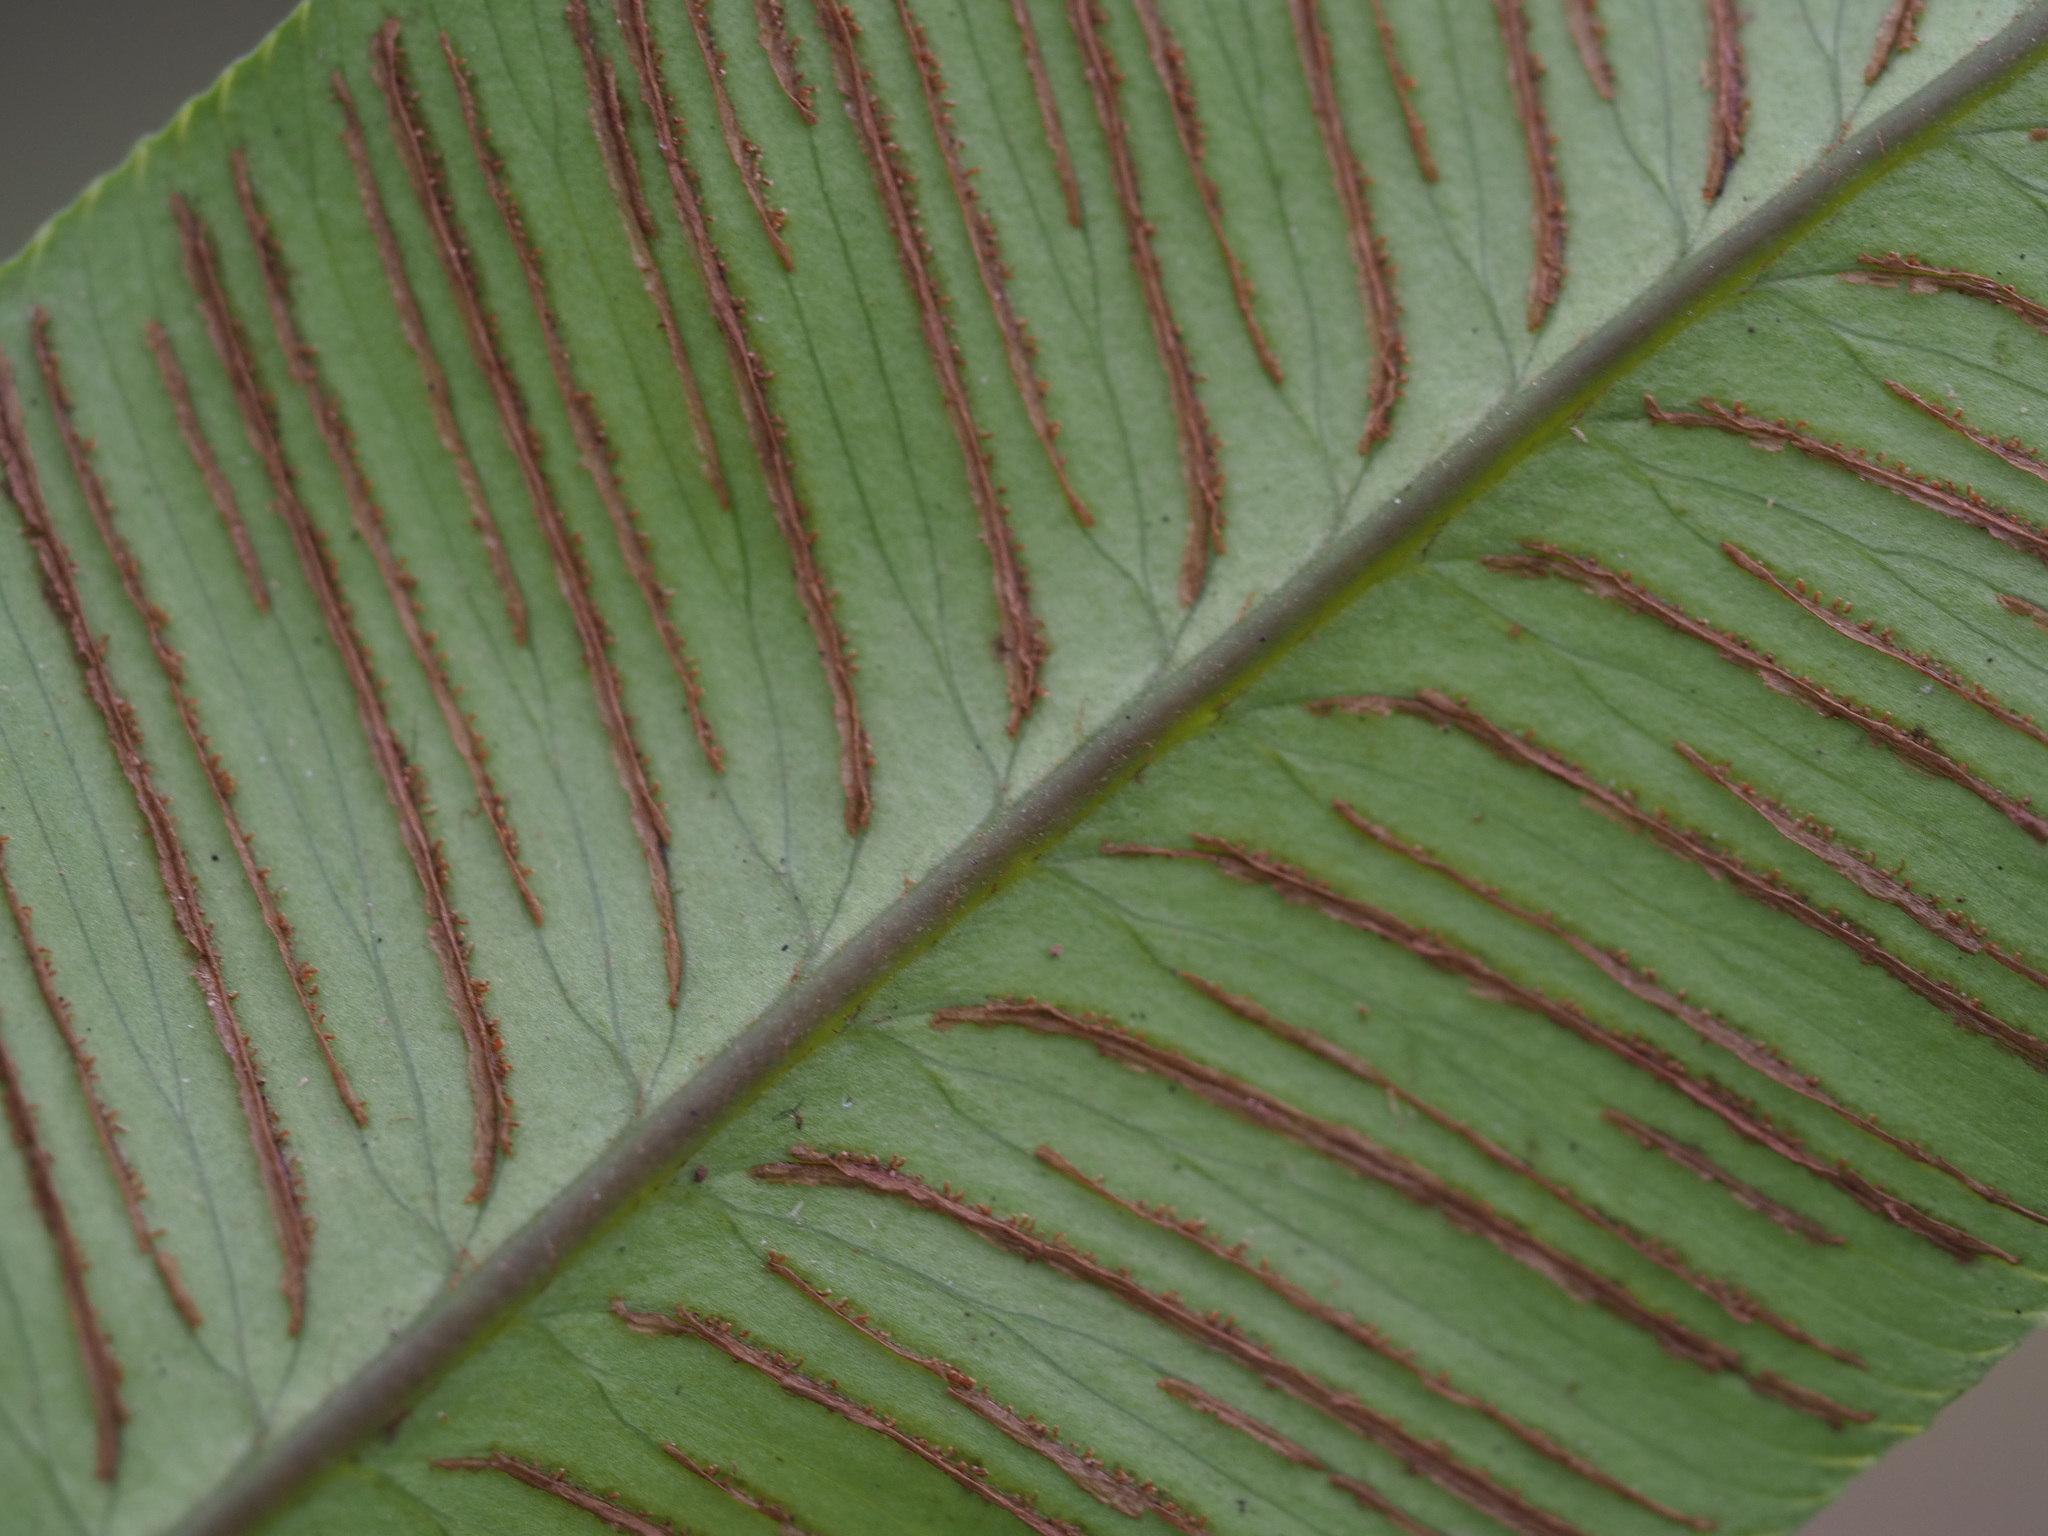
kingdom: Plantae
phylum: Tracheophyta
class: Polypodiopsida
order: Polypodiales
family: Athyriaceae
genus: Diplazium
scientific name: Diplazium lineolatum
